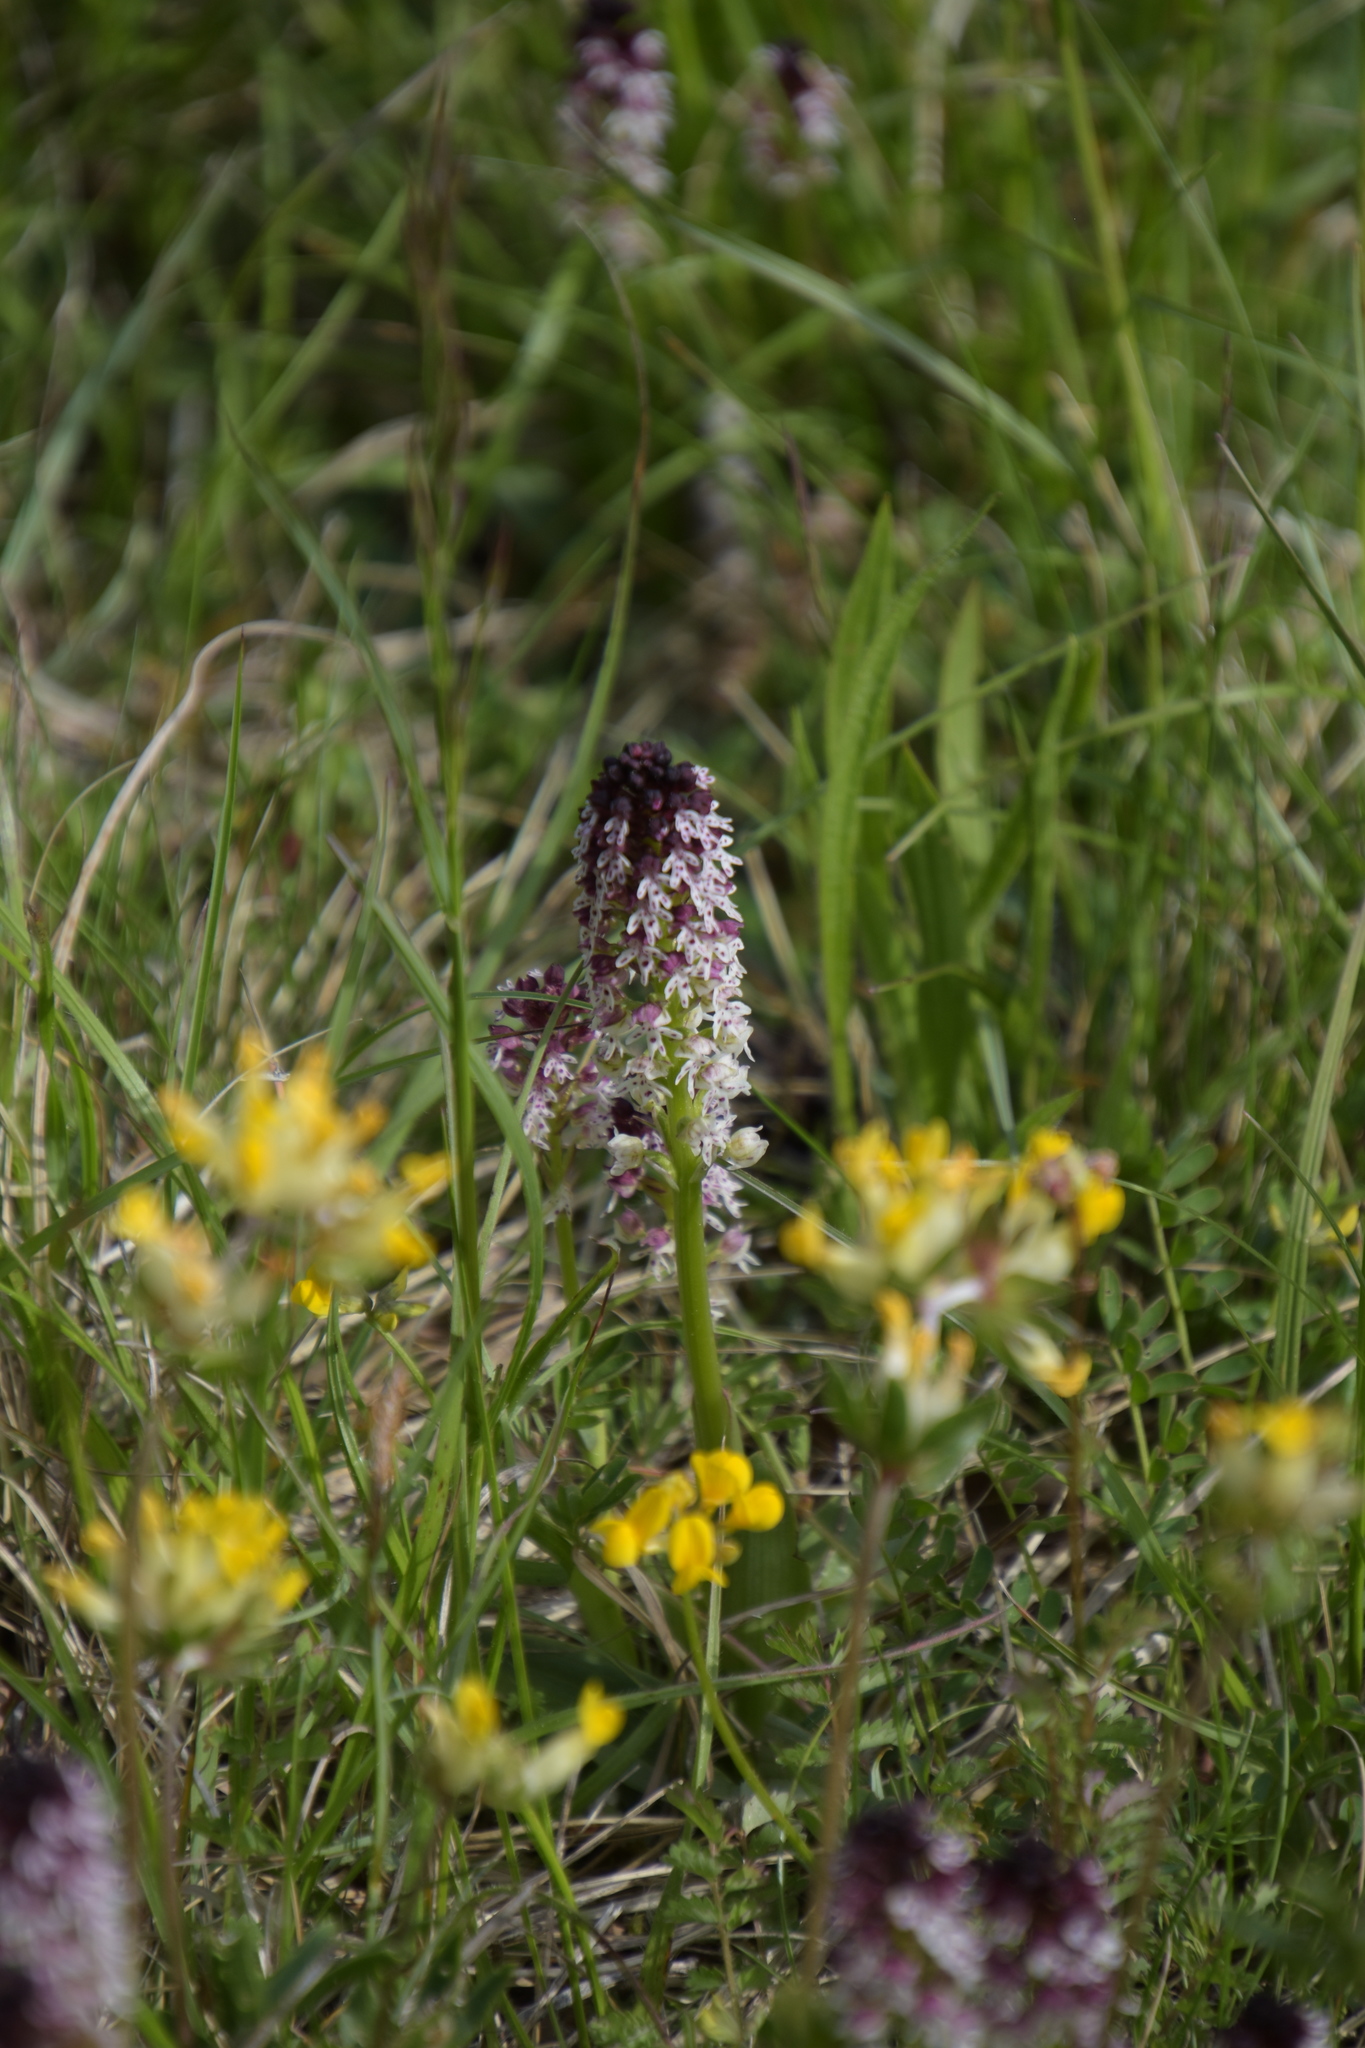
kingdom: Plantae
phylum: Tracheophyta
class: Liliopsida
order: Asparagales
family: Orchidaceae
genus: Neotinea
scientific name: Neotinea ustulata
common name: Burnt orchid
